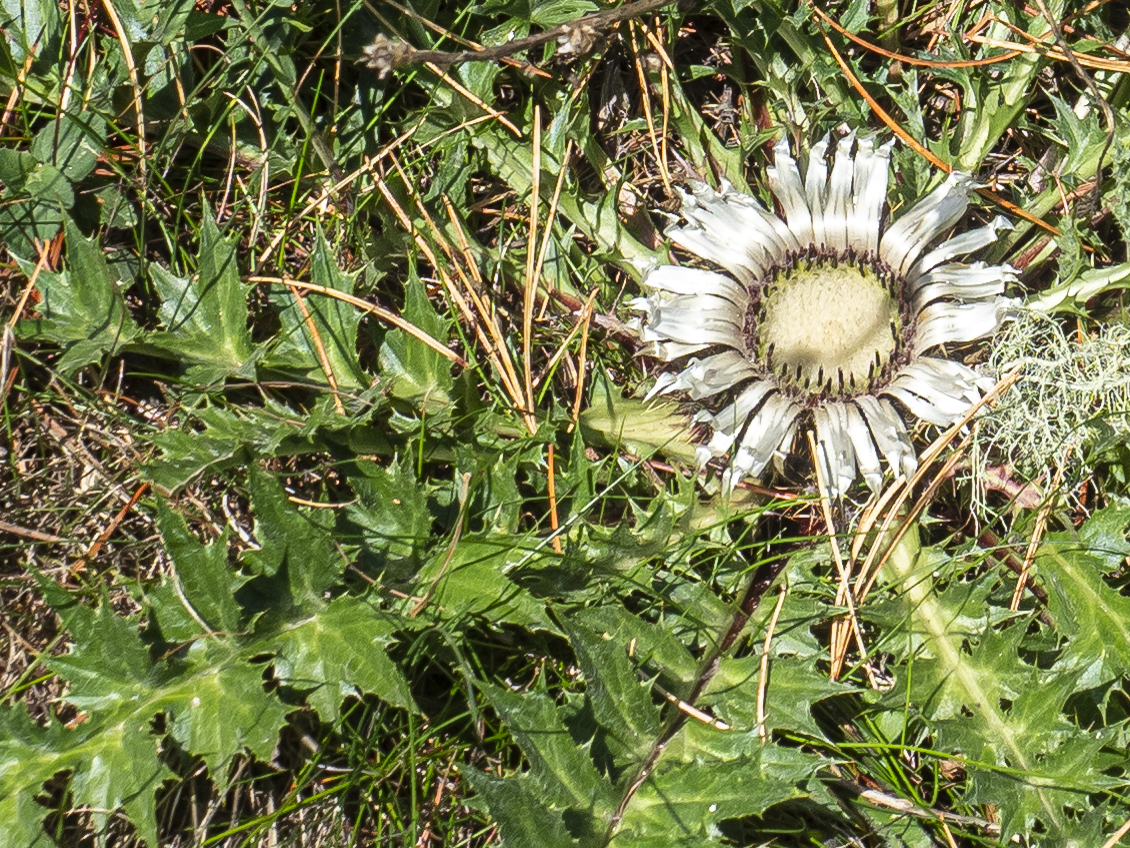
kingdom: Plantae
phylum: Tracheophyta
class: Magnoliopsida
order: Asterales
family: Asteraceae
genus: Carlina
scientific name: Carlina acaulis
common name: Stemless carline thistle
